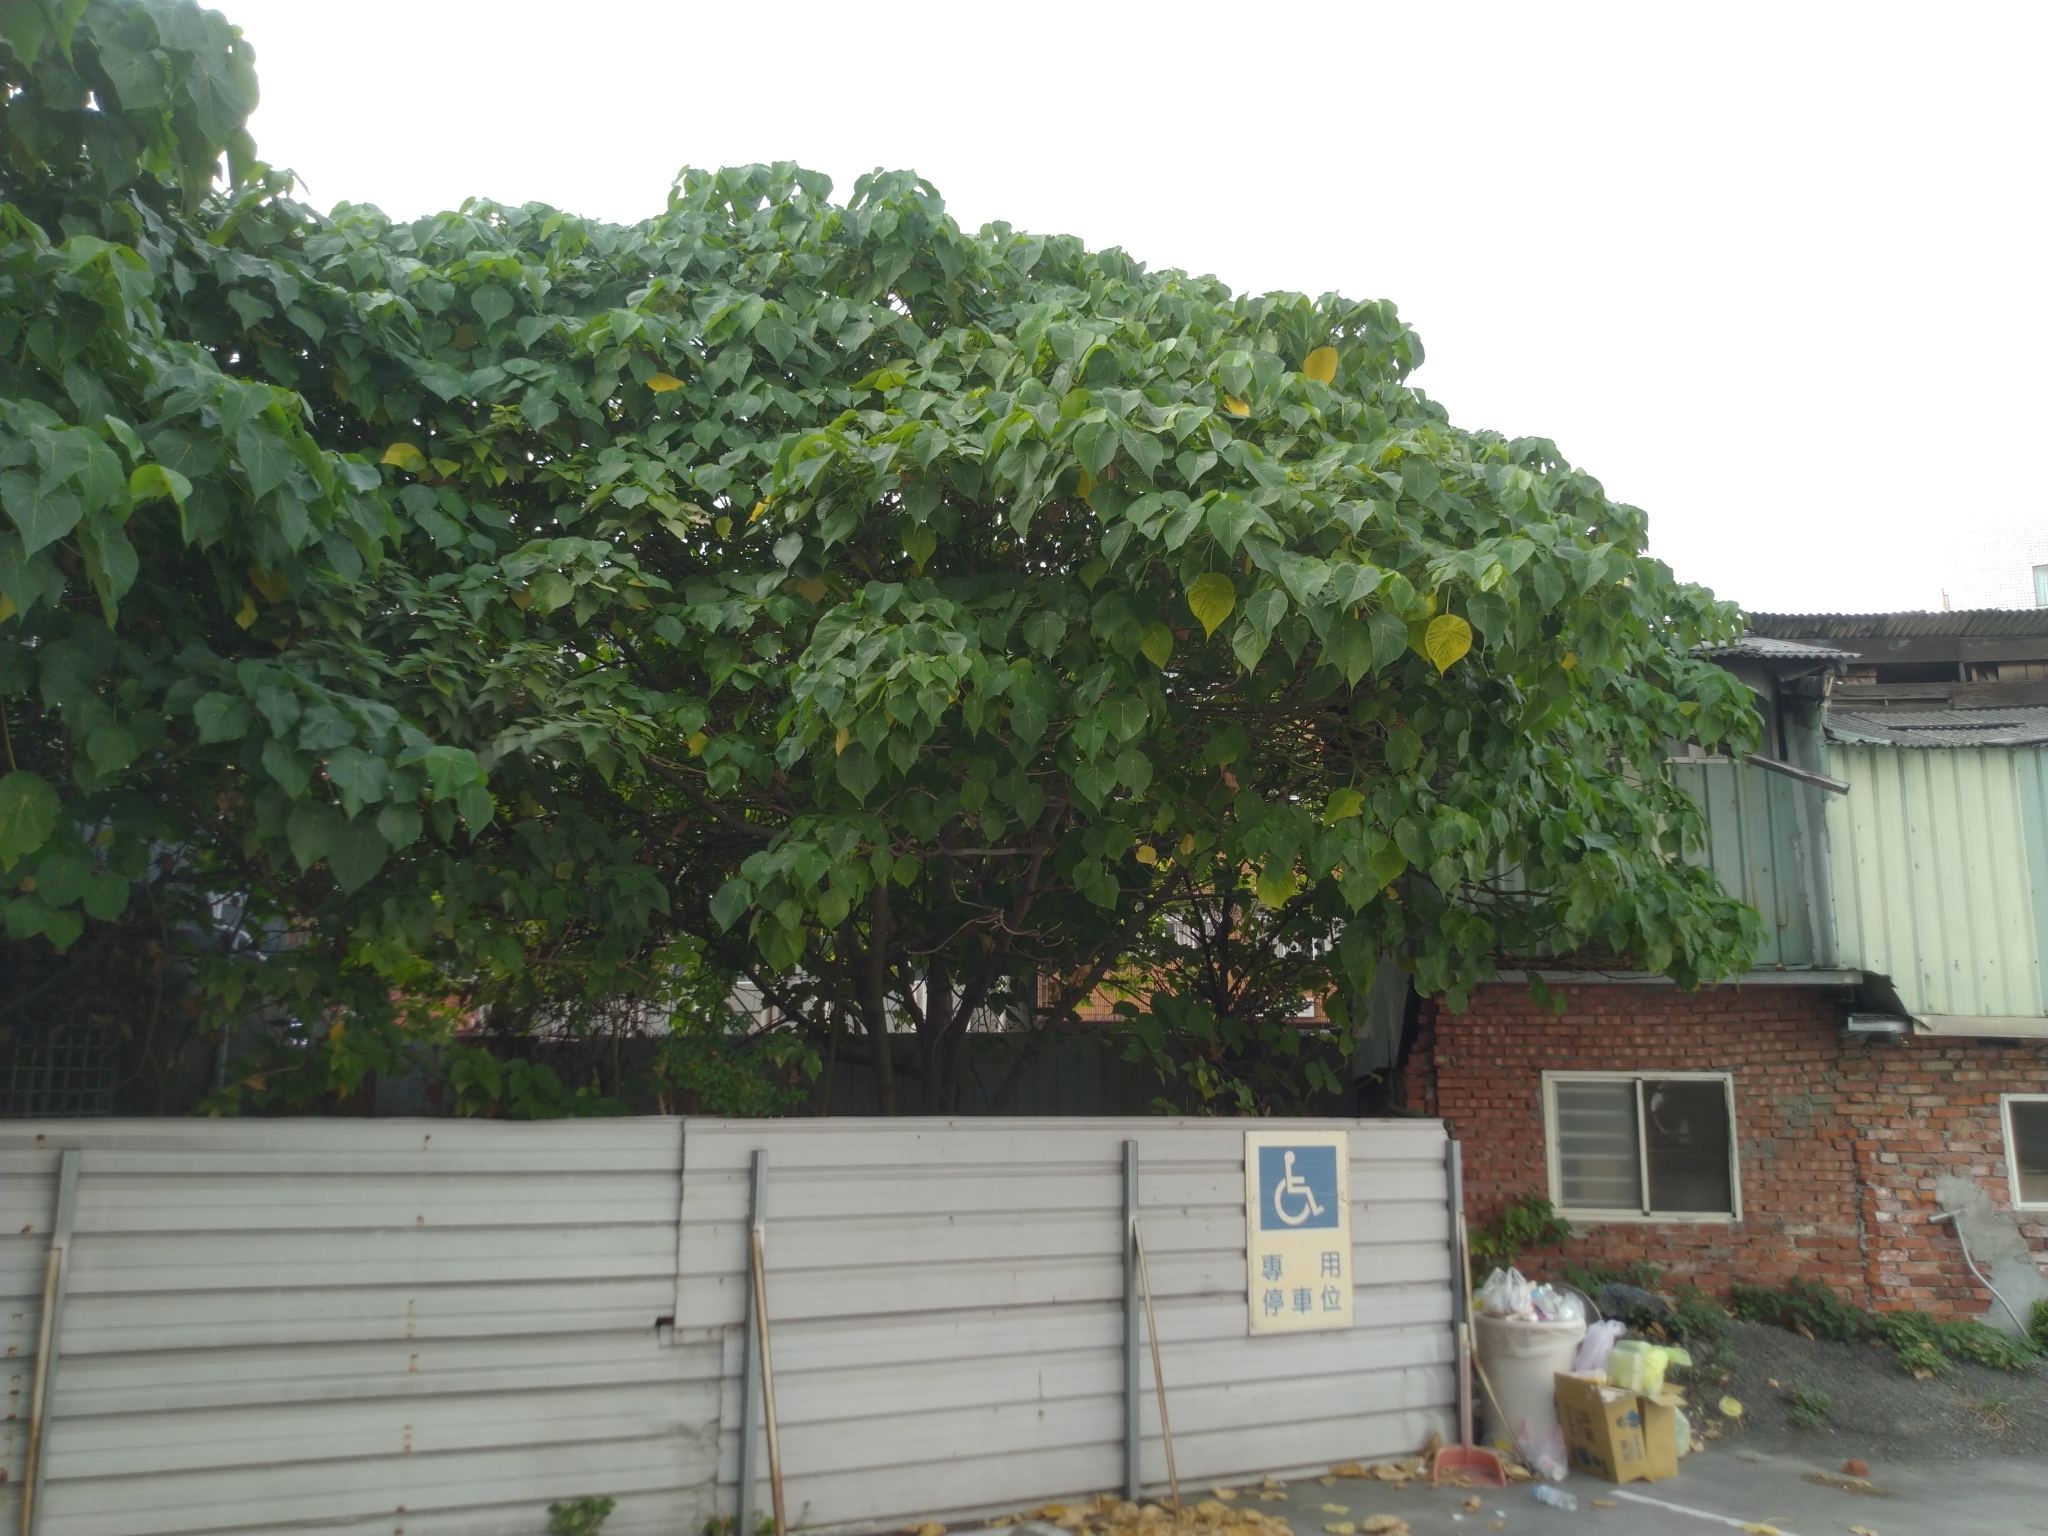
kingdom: Plantae
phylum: Tracheophyta
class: Magnoliopsida
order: Malpighiales
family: Euphorbiaceae
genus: Macaranga
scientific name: Macaranga tanarius
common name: Parasol leaf tree
